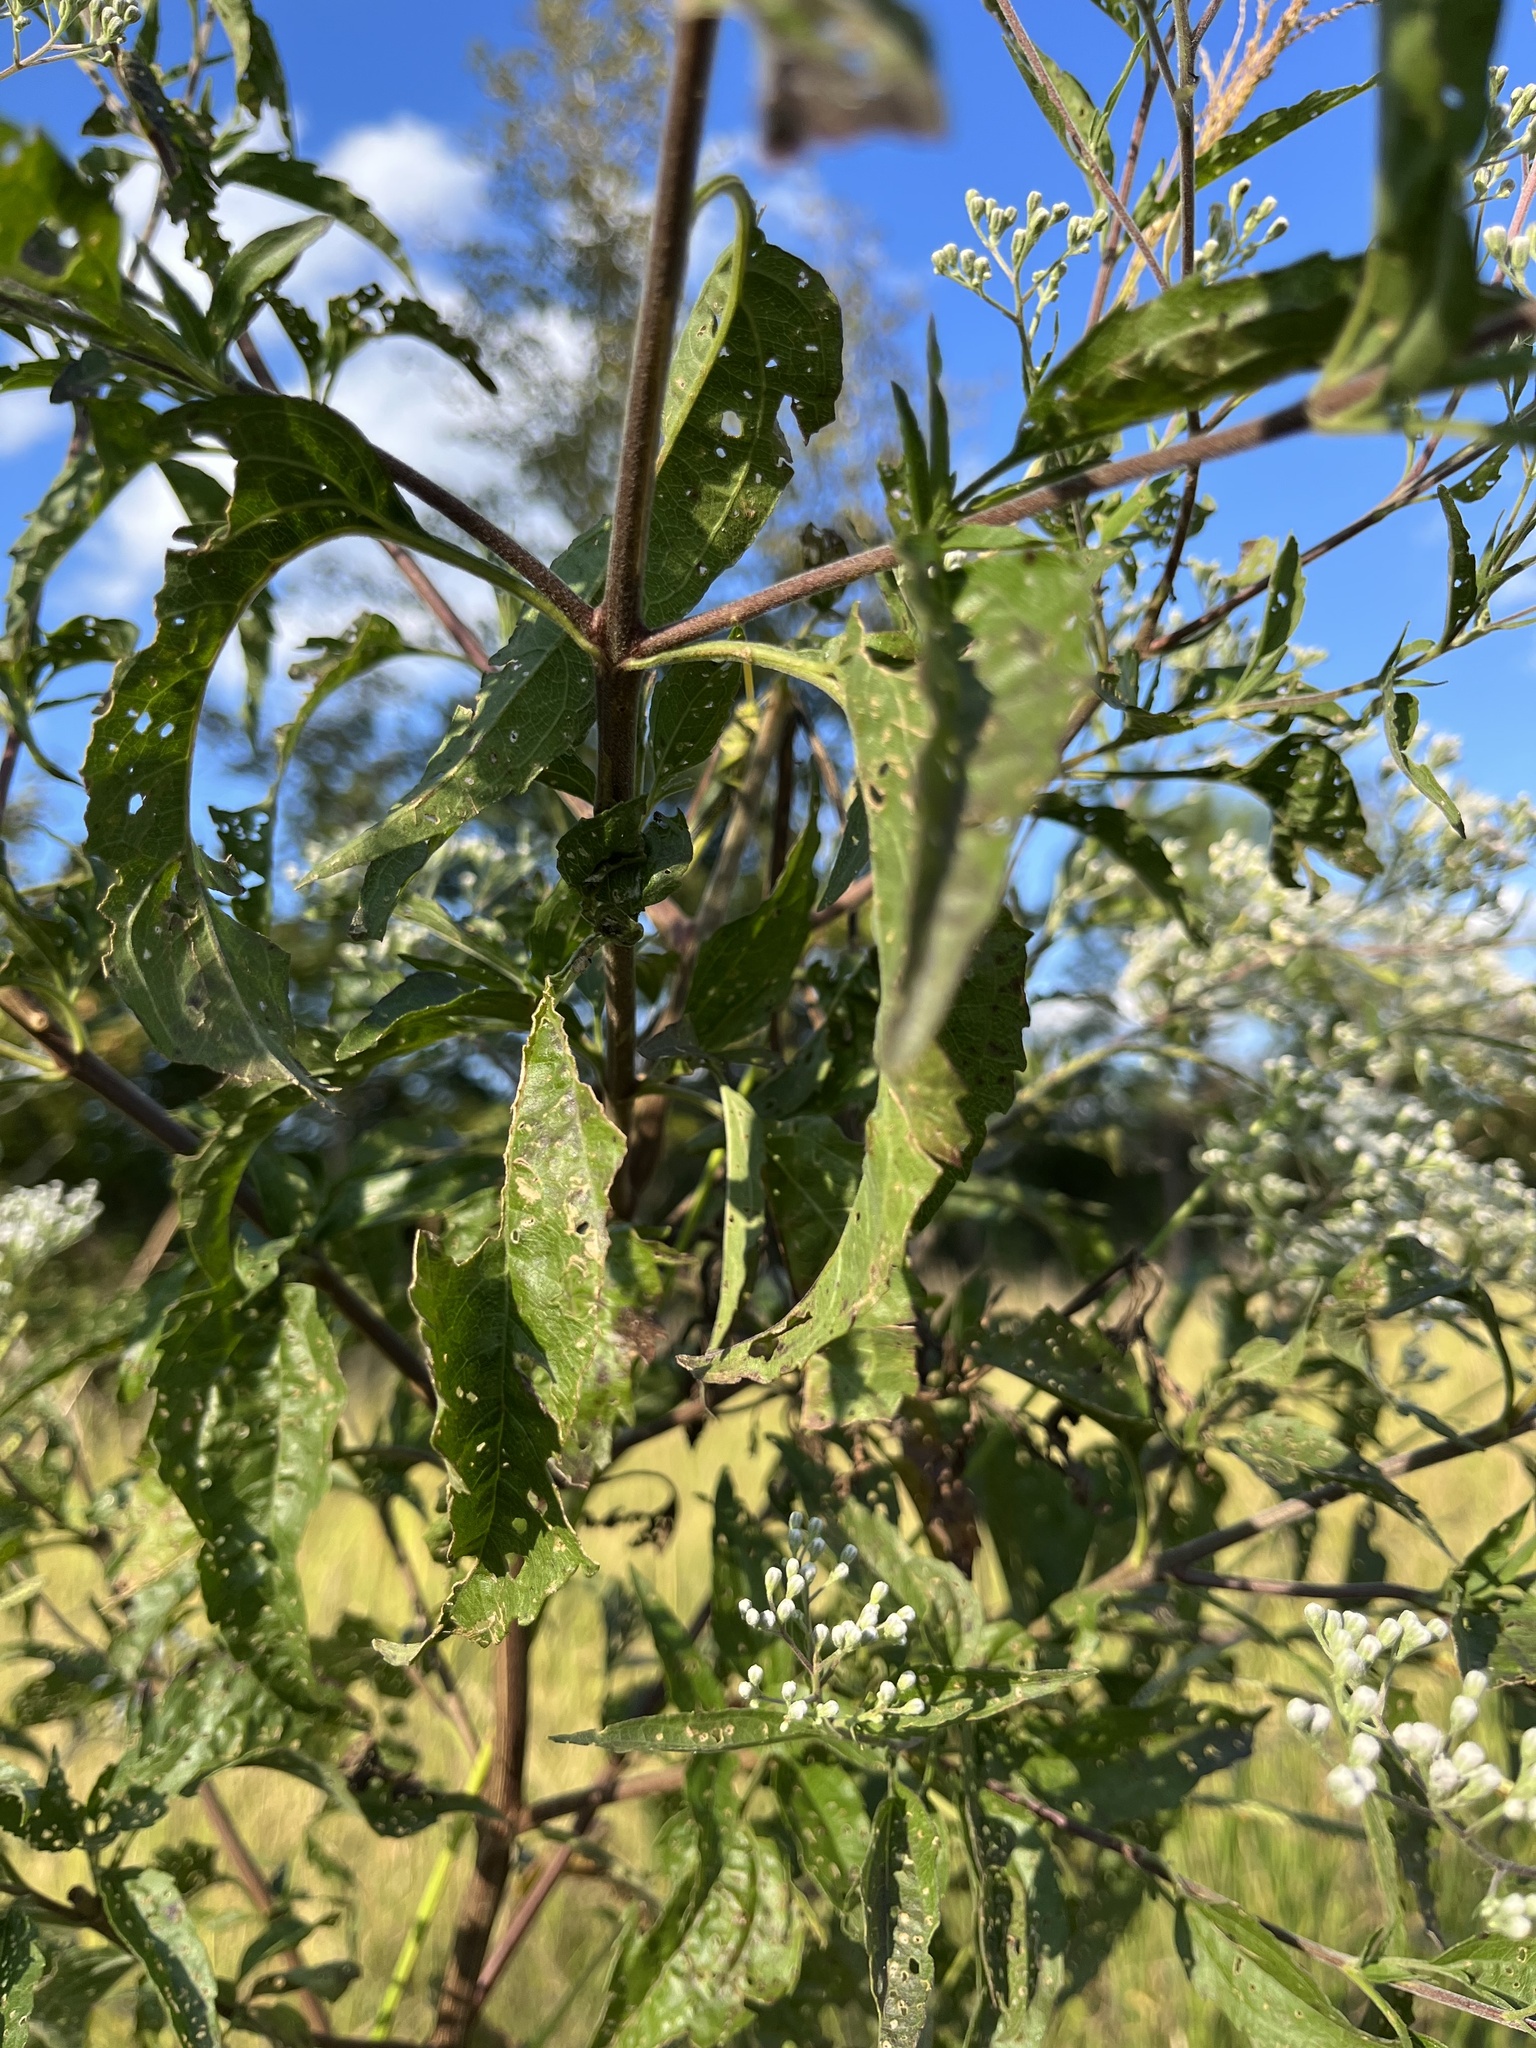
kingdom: Plantae
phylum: Tracheophyta
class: Magnoliopsida
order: Asterales
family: Asteraceae
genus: Eupatorium
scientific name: Eupatorium serotinum
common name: Late boneset
